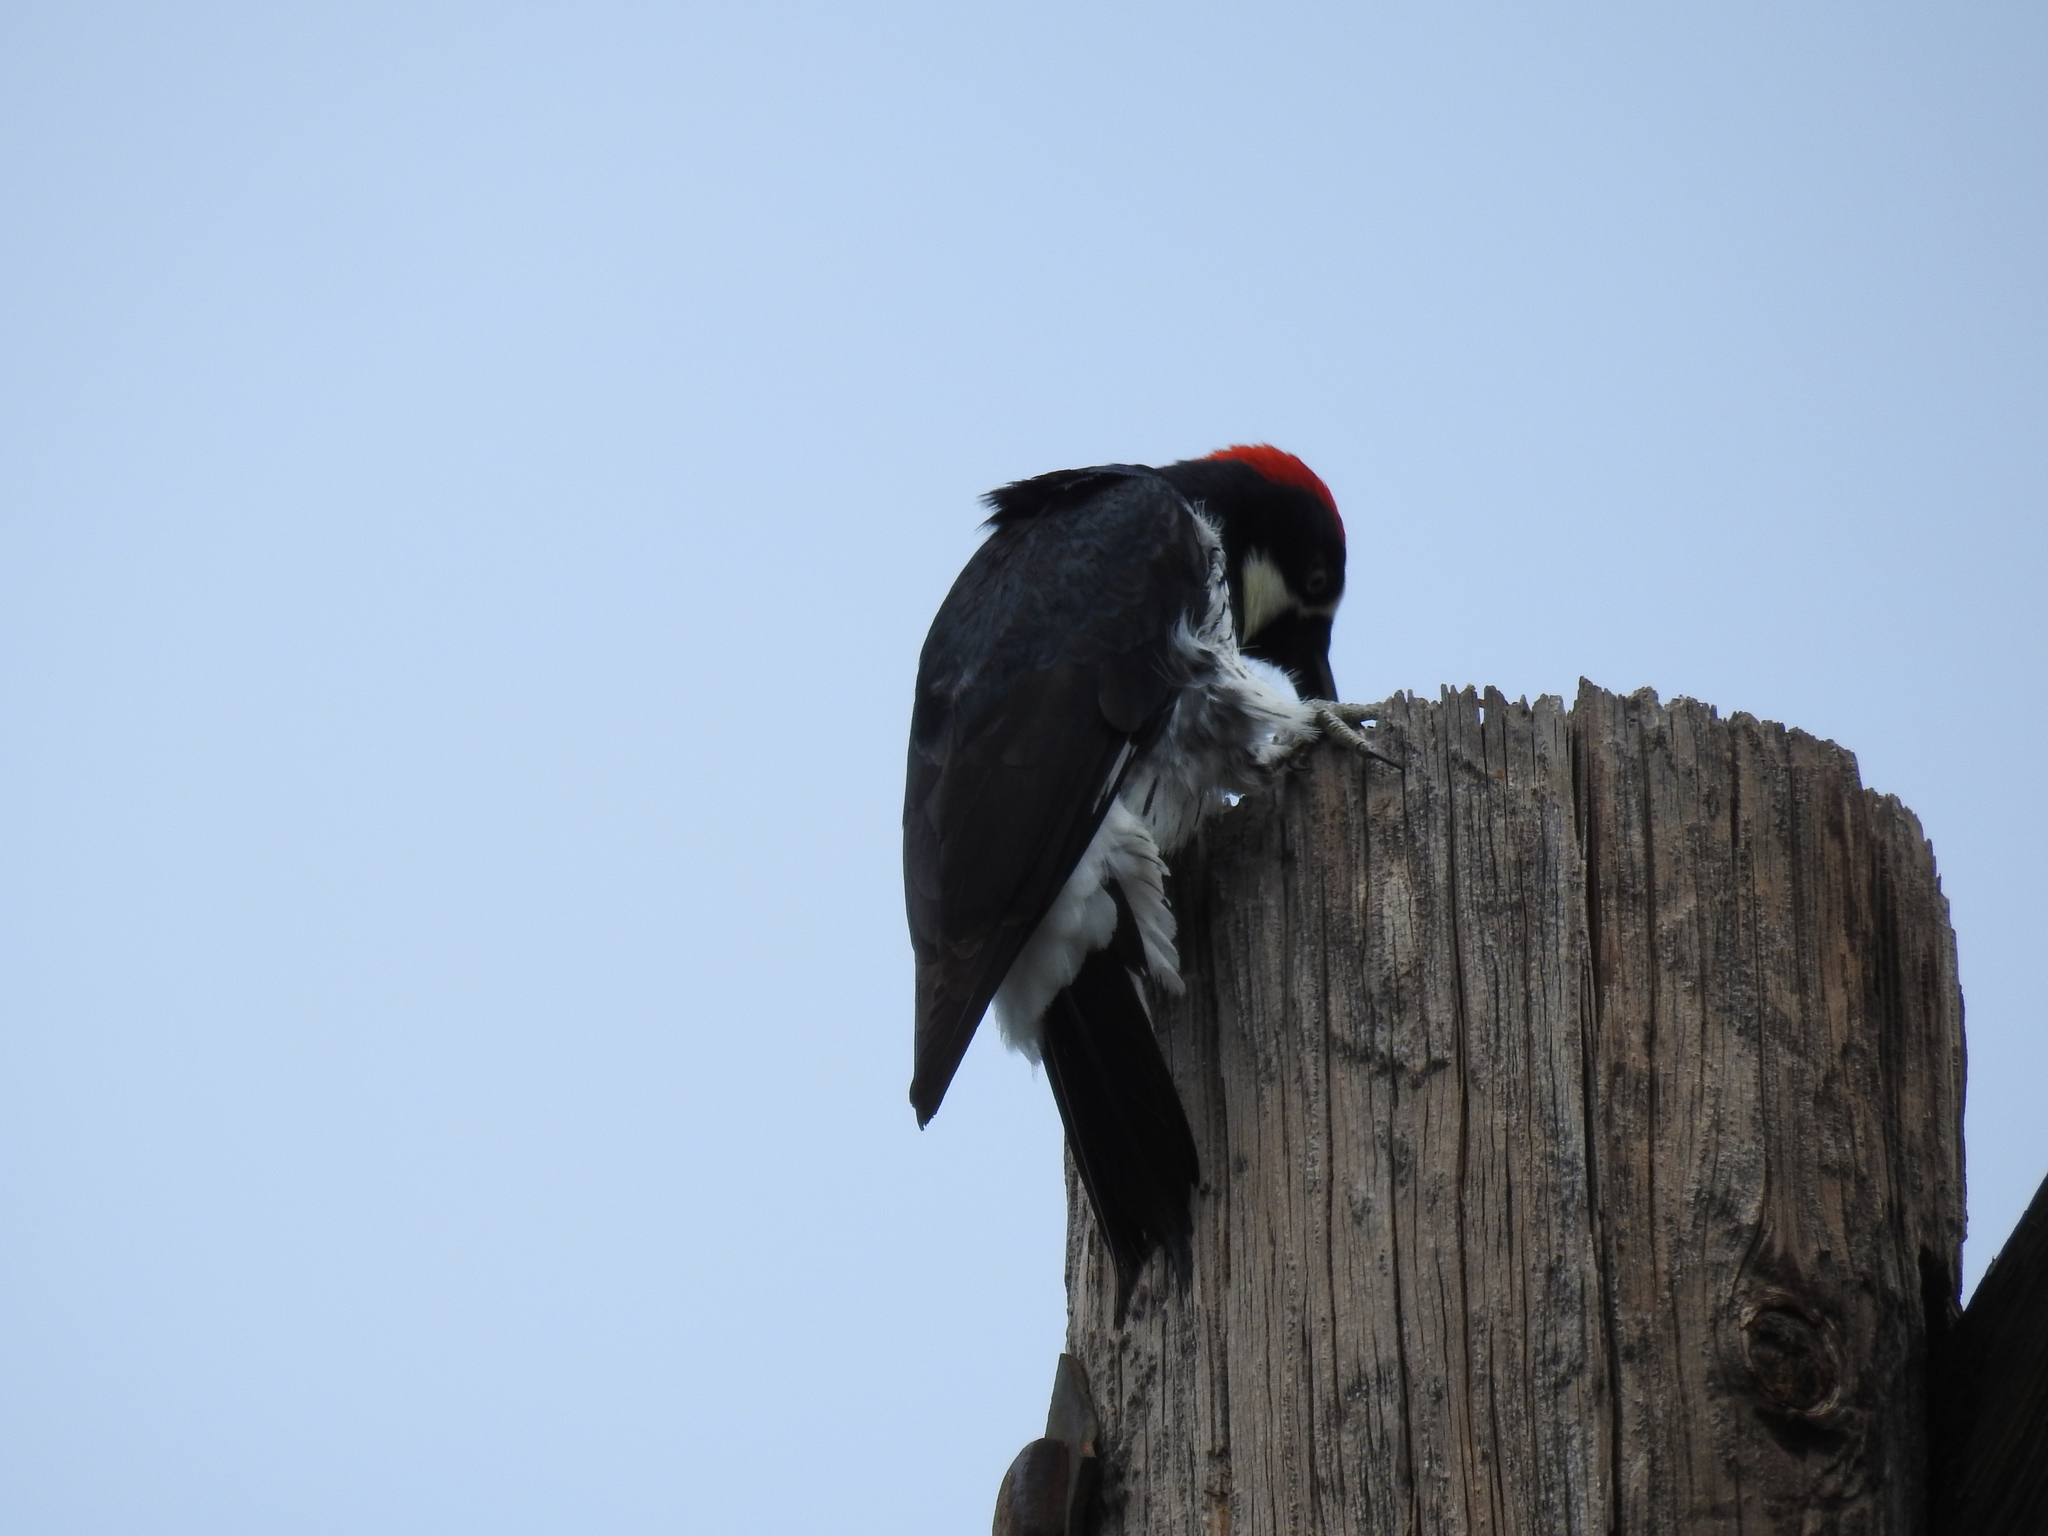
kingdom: Animalia
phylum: Chordata
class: Aves
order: Piciformes
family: Picidae
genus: Melanerpes
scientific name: Melanerpes formicivorus
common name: Acorn woodpecker
